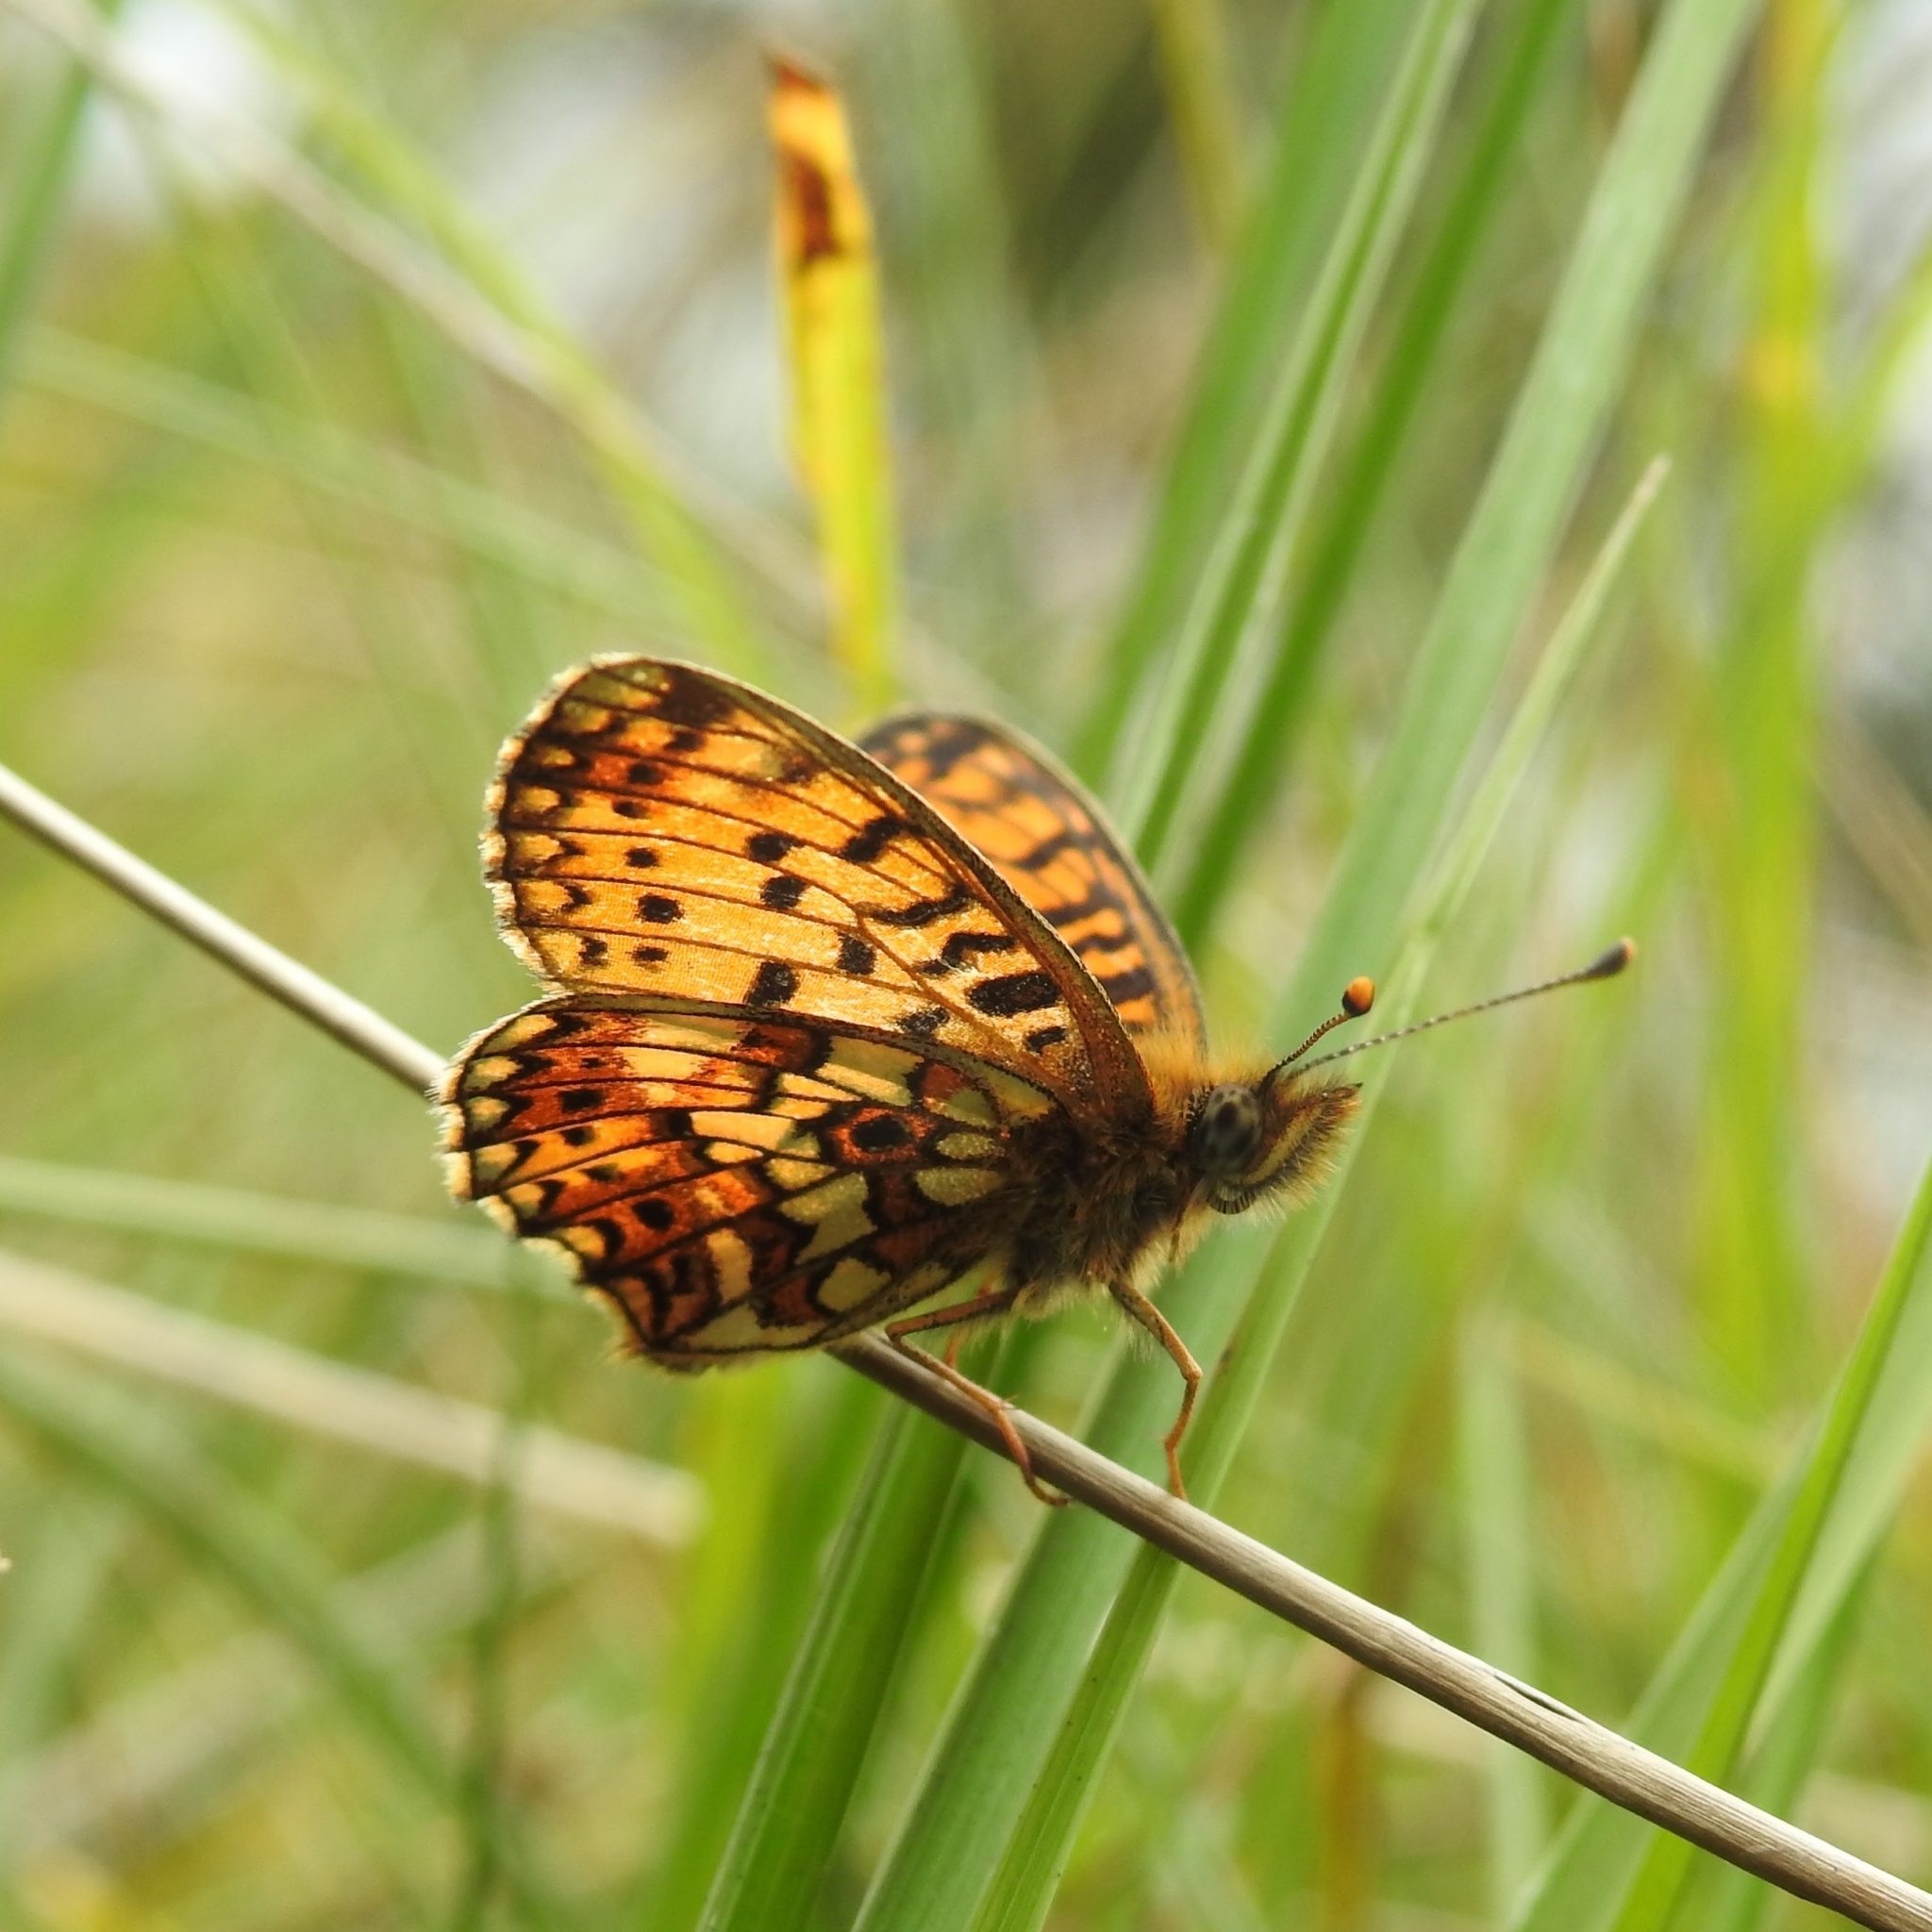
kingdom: Animalia
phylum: Arthropoda
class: Insecta
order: Lepidoptera
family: Nymphalidae
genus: Boloria
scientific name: Boloria selene
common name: Small pearl-bordered fritillary
